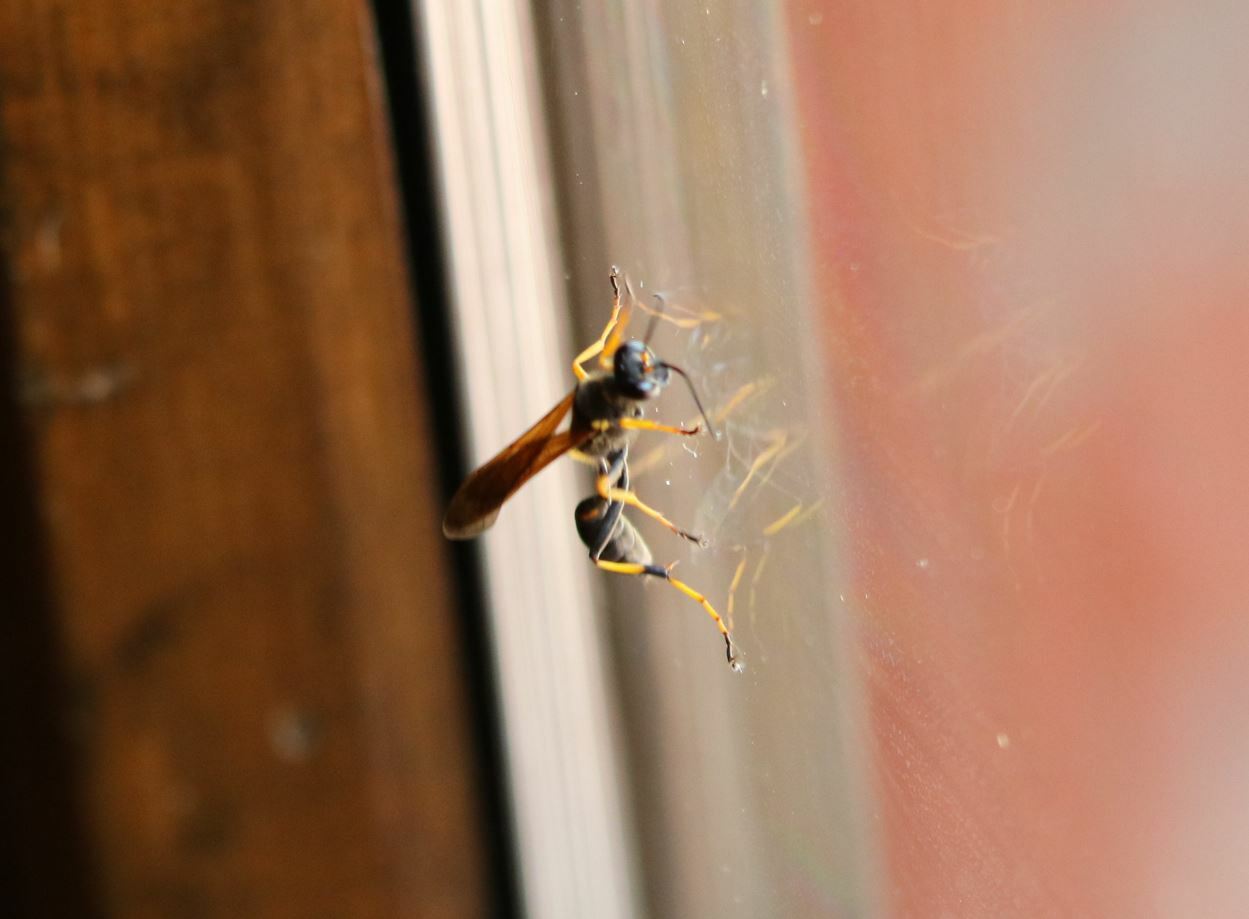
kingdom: Animalia
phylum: Arthropoda
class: Insecta
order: Hymenoptera
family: Sphecidae
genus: Sceliphron
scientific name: Sceliphron caementarium
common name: Mud dauber
